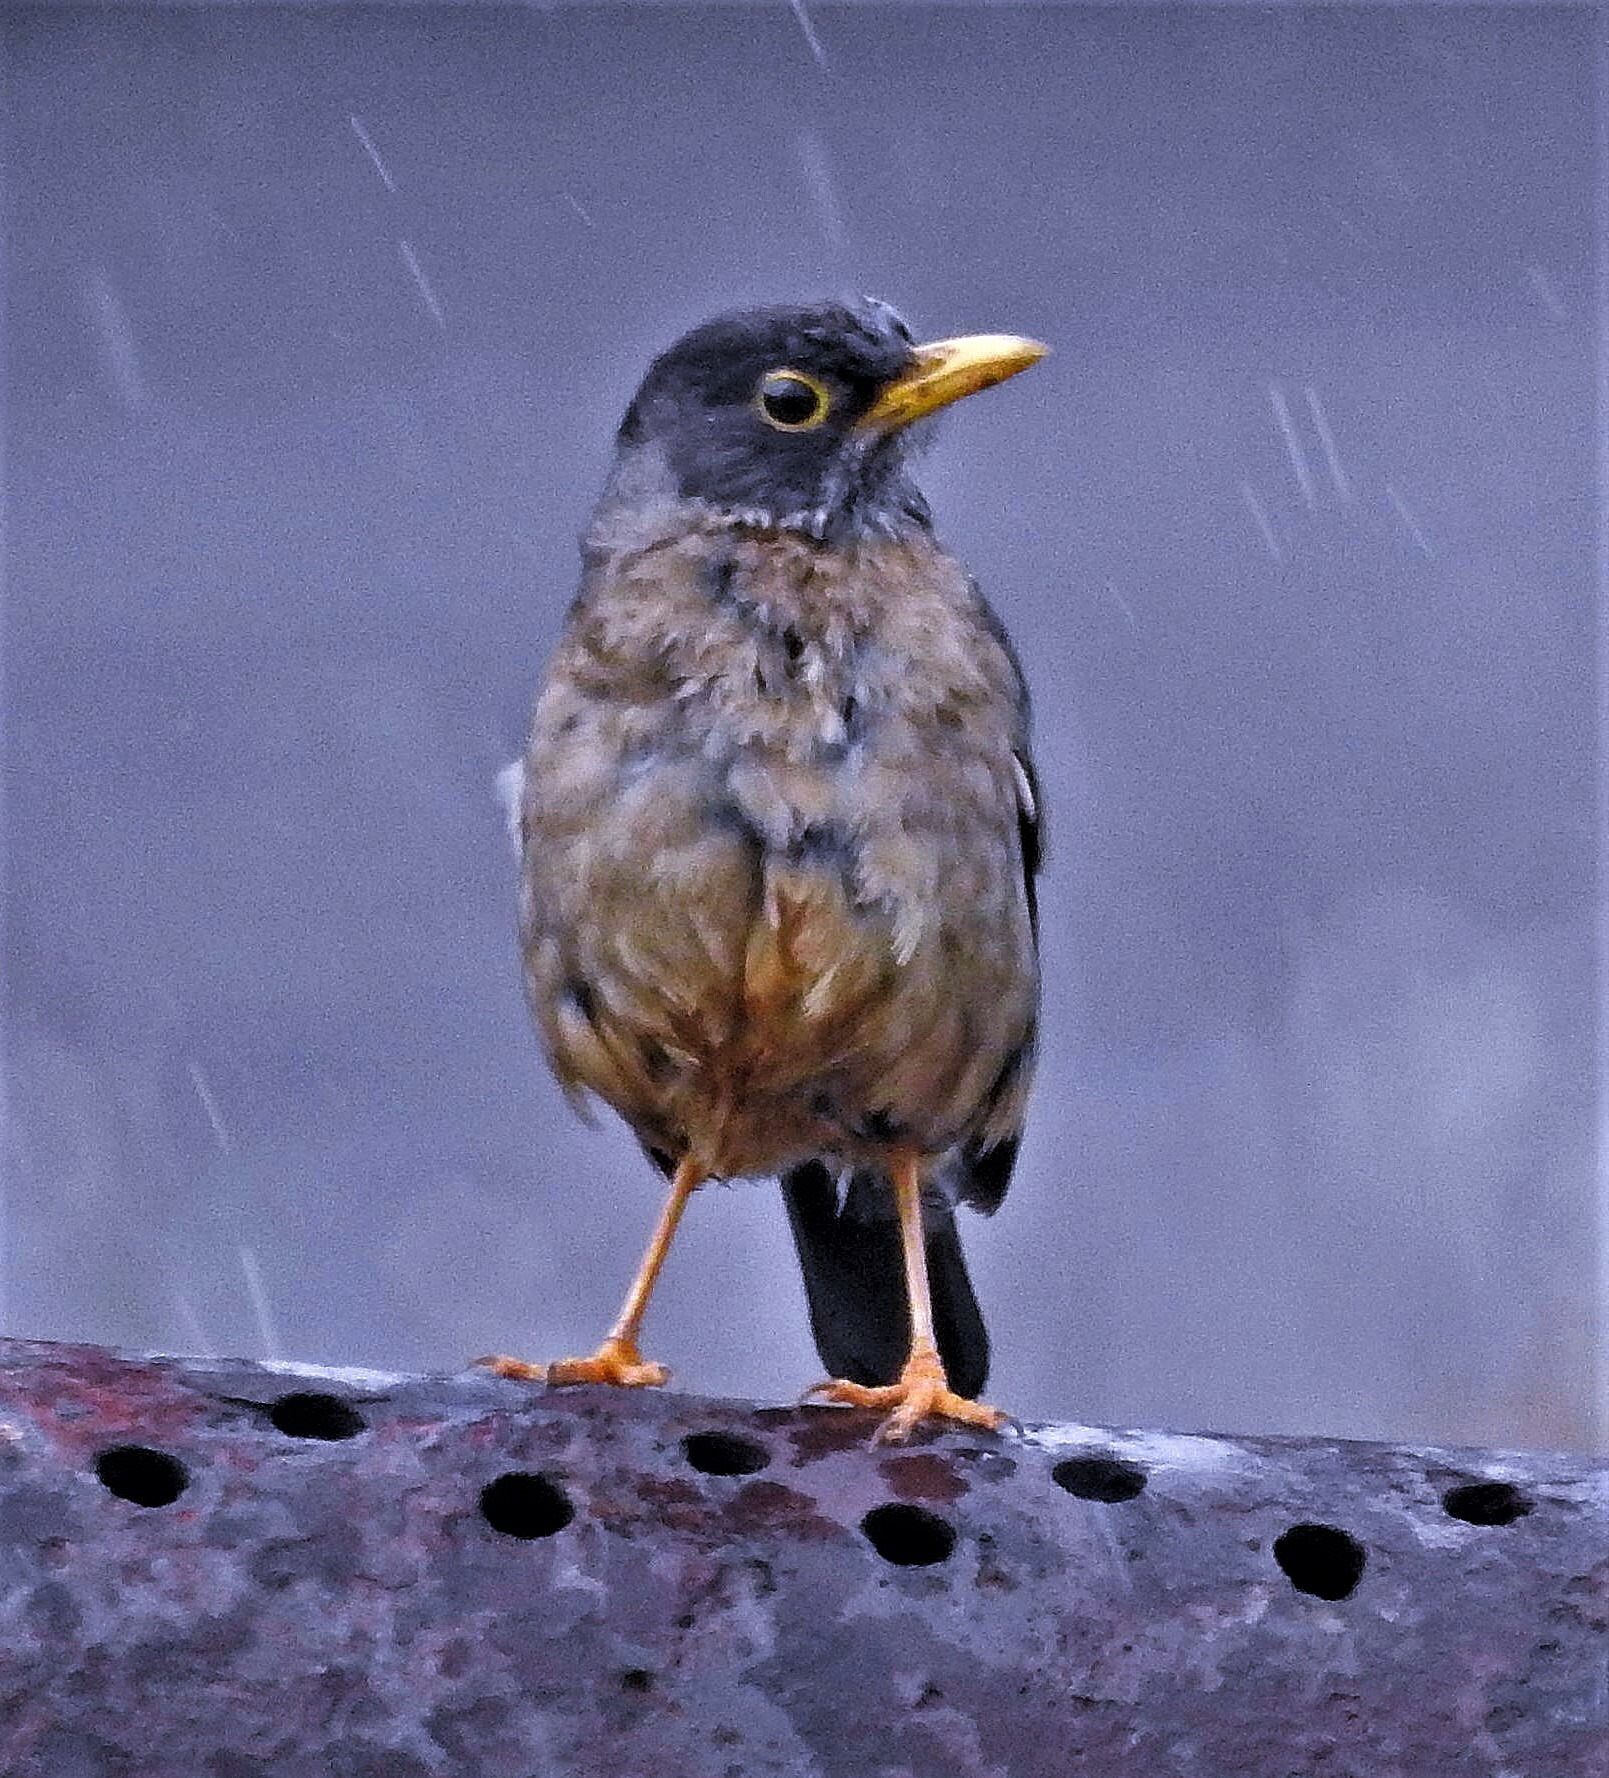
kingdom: Animalia
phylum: Chordata
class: Aves
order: Passeriformes
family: Turdidae
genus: Turdus
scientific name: Turdus falcklandii
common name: Austral thrush
